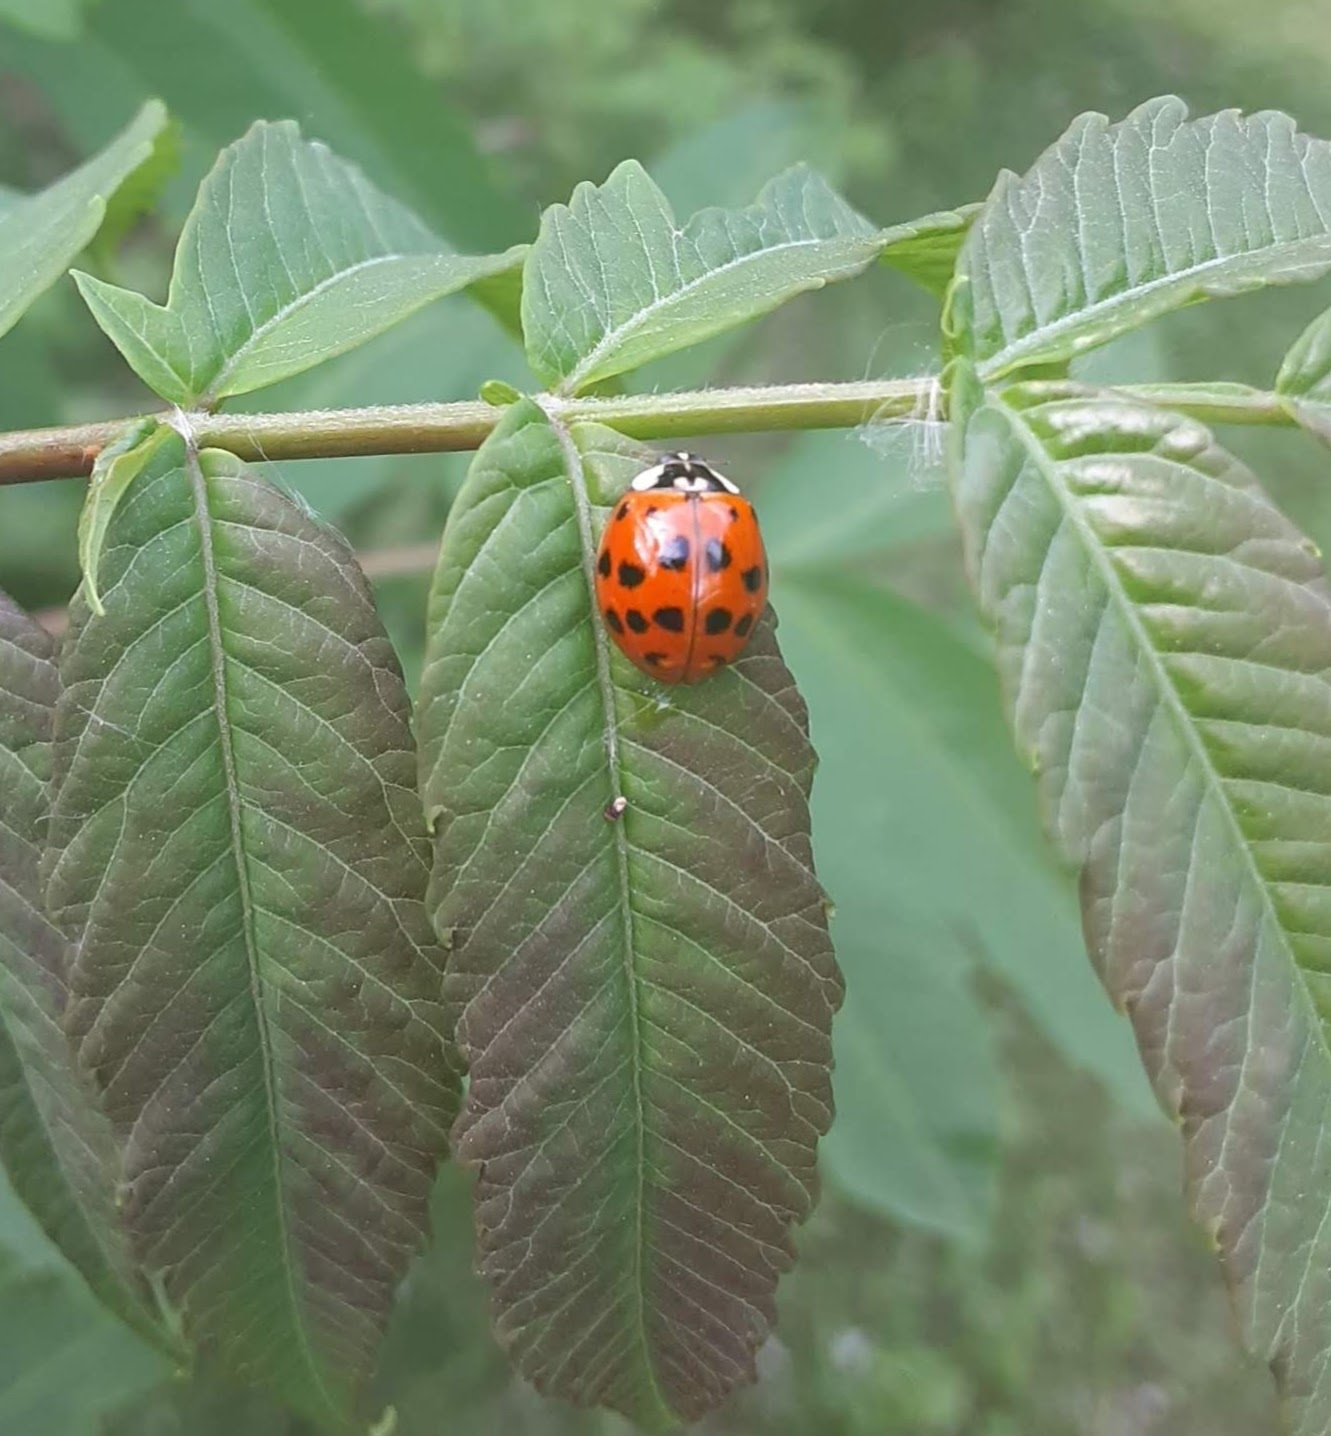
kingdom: Animalia
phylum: Arthropoda
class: Insecta
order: Coleoptera
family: Coccinellidae
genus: Harmonia
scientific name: Harmonia axyridis
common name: Harlequin ladybird
